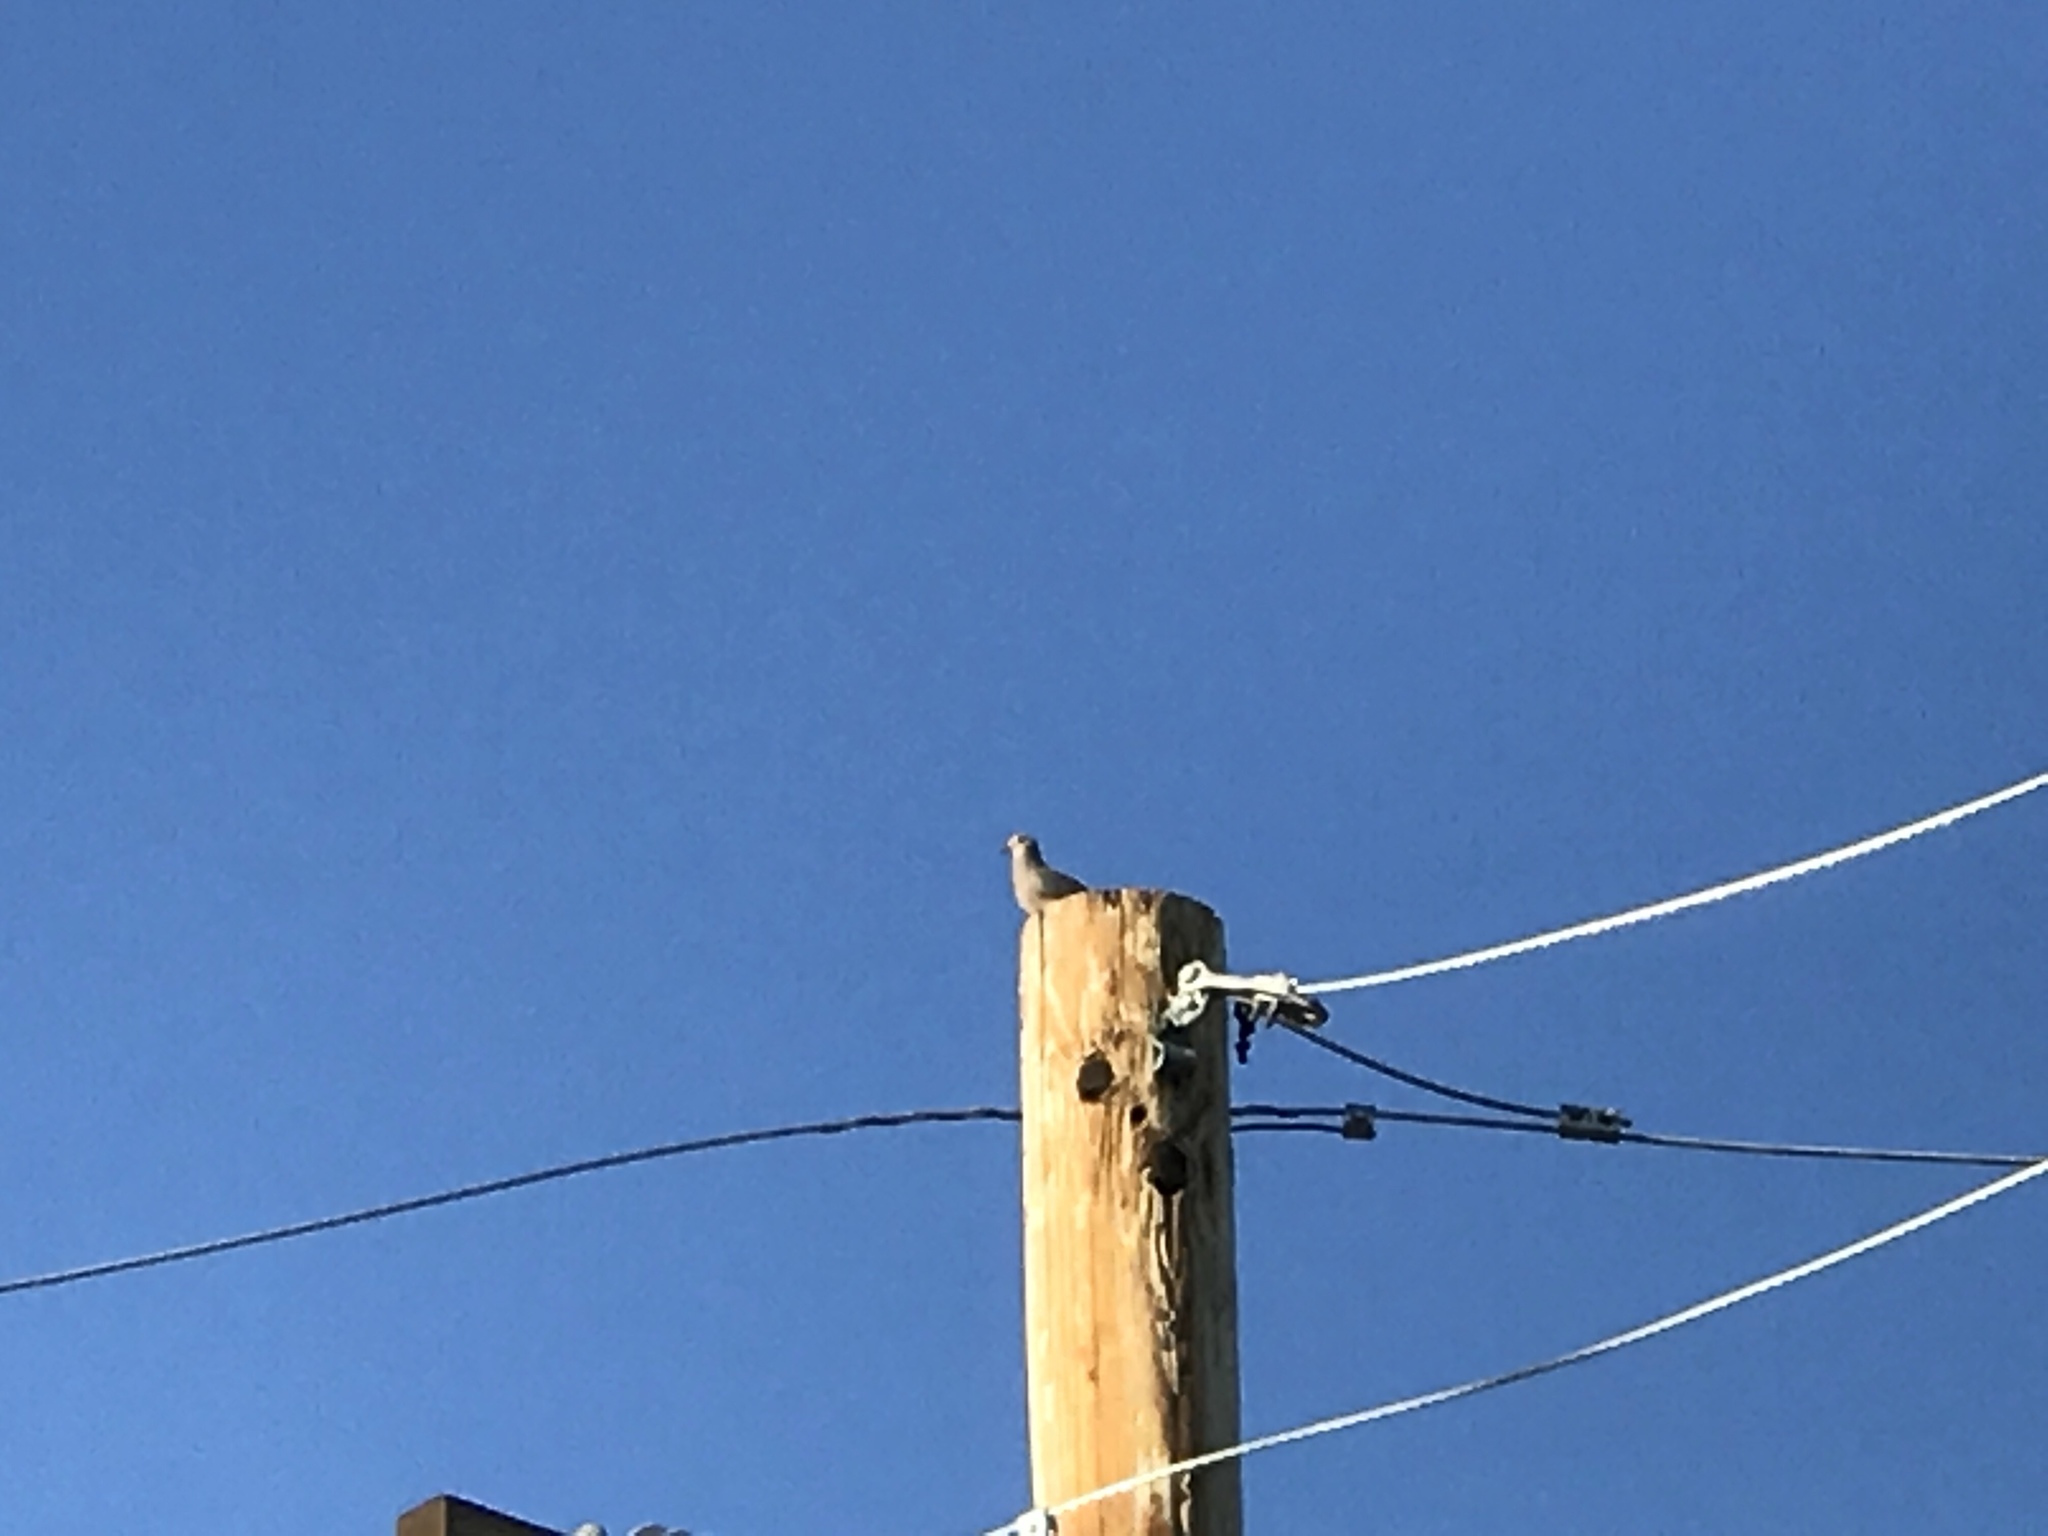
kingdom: Animalia
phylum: Chordata
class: Aves
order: Columbiformes
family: Columbidae
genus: Zenaida
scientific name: Zenaida macroura
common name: Mourning dove
